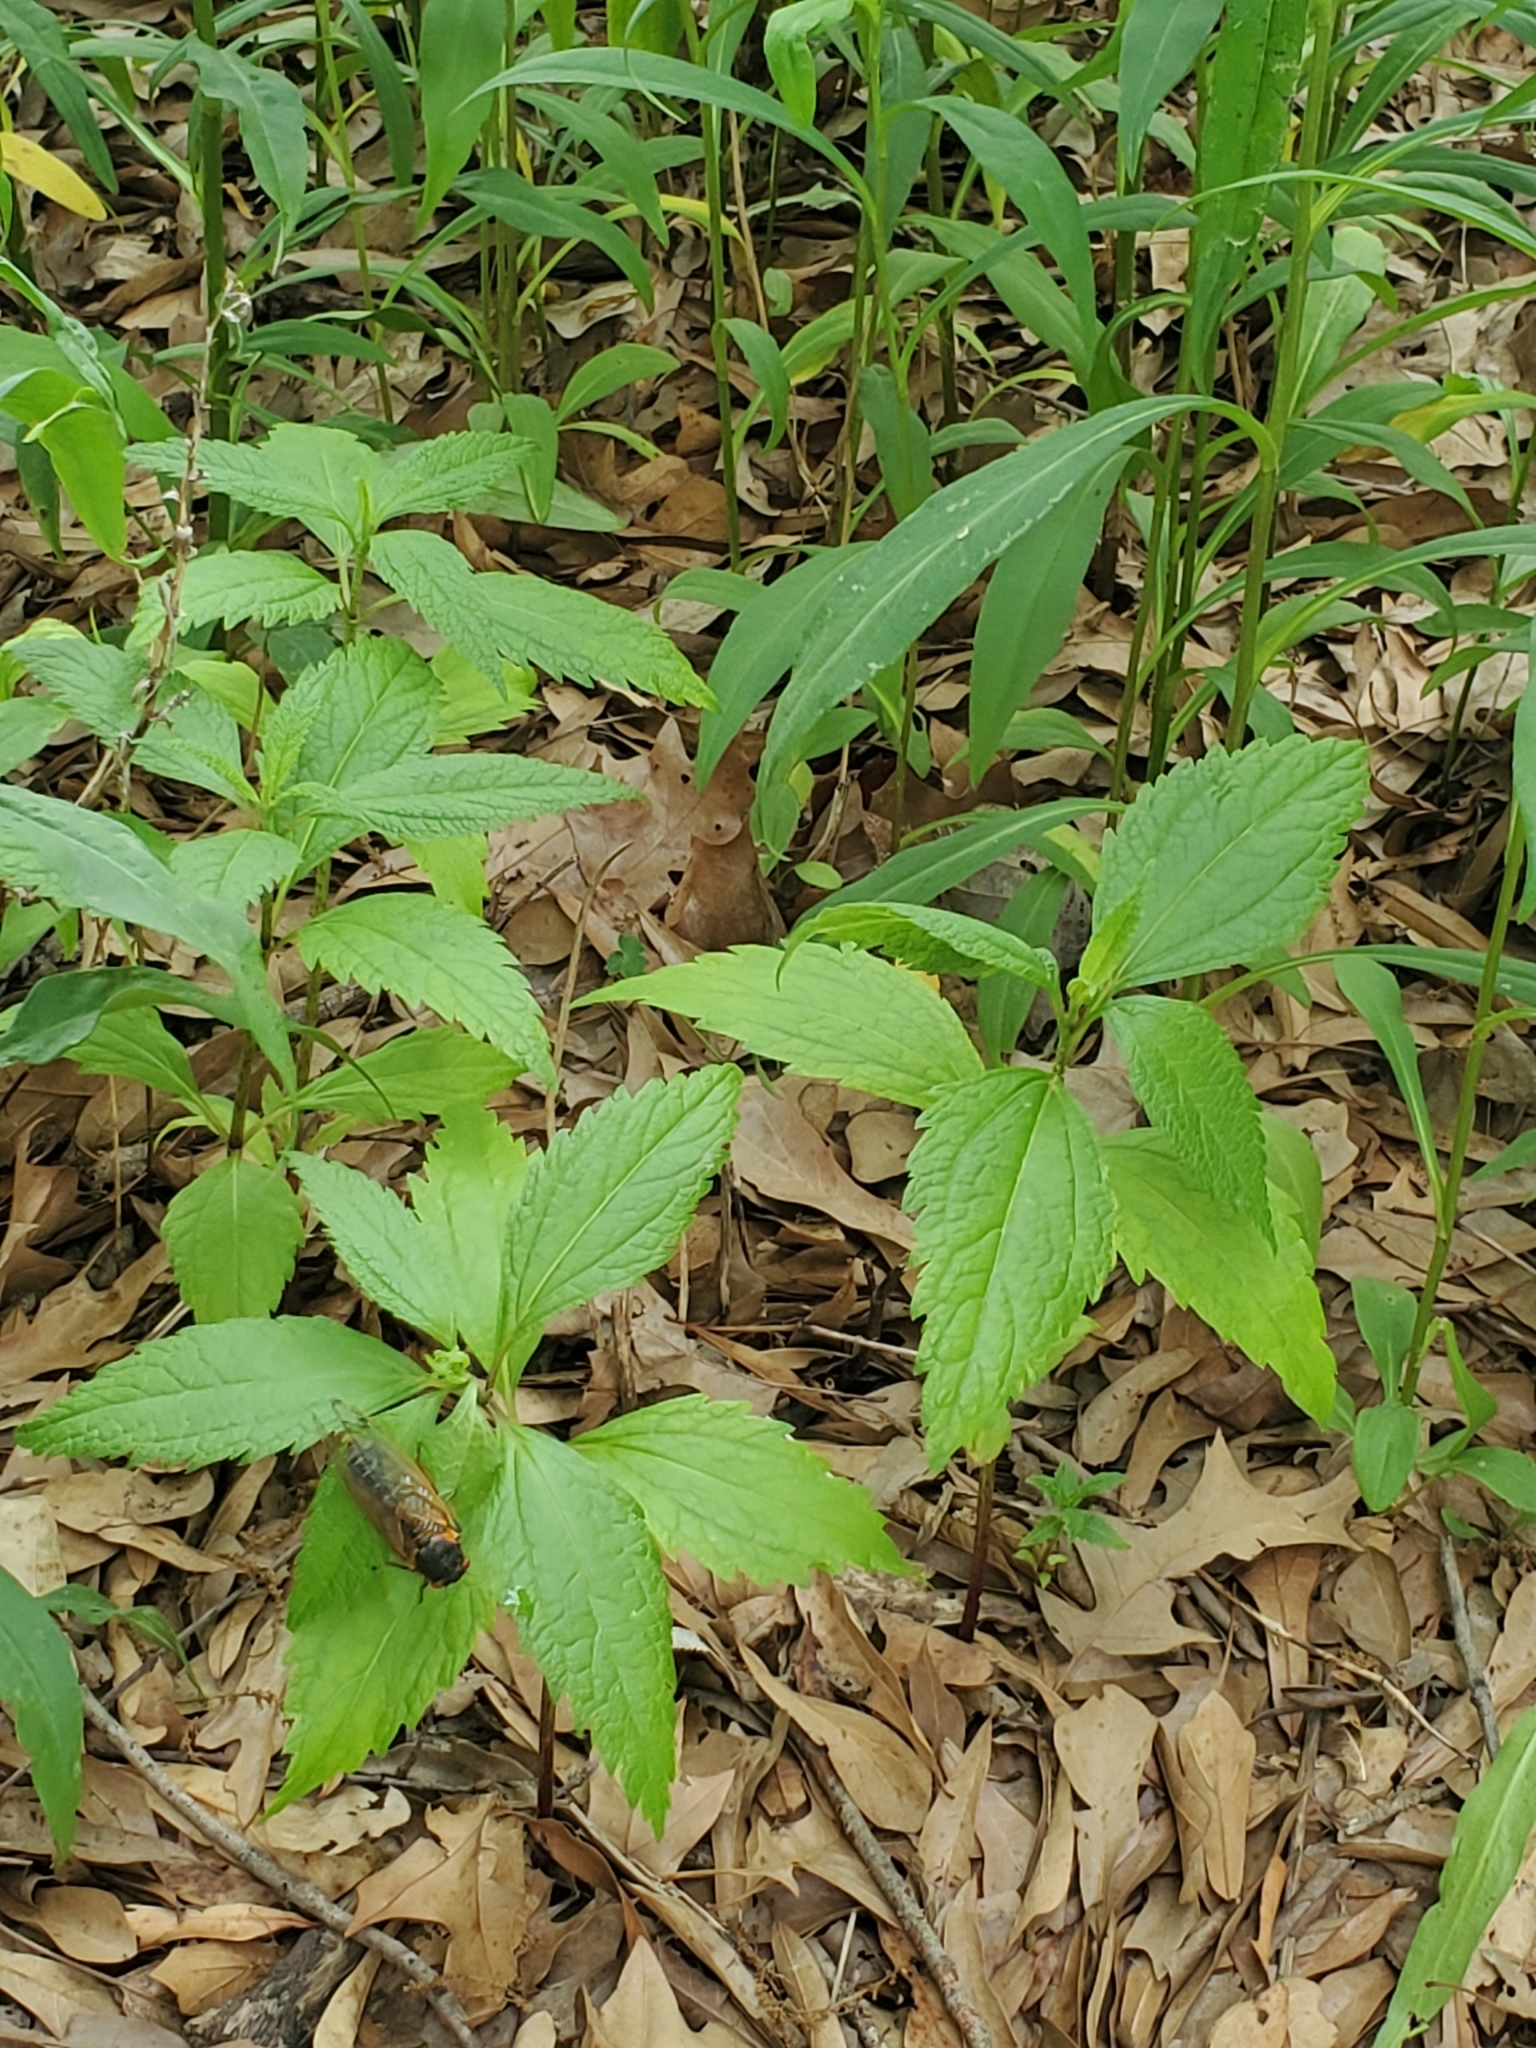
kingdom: Plantae
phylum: Tracheophyta
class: Magnoliopsida
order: Asterales
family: Asteraceae
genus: Eutrochium
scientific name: Eutrochium dubium
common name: Coastal plain joe pye weed
